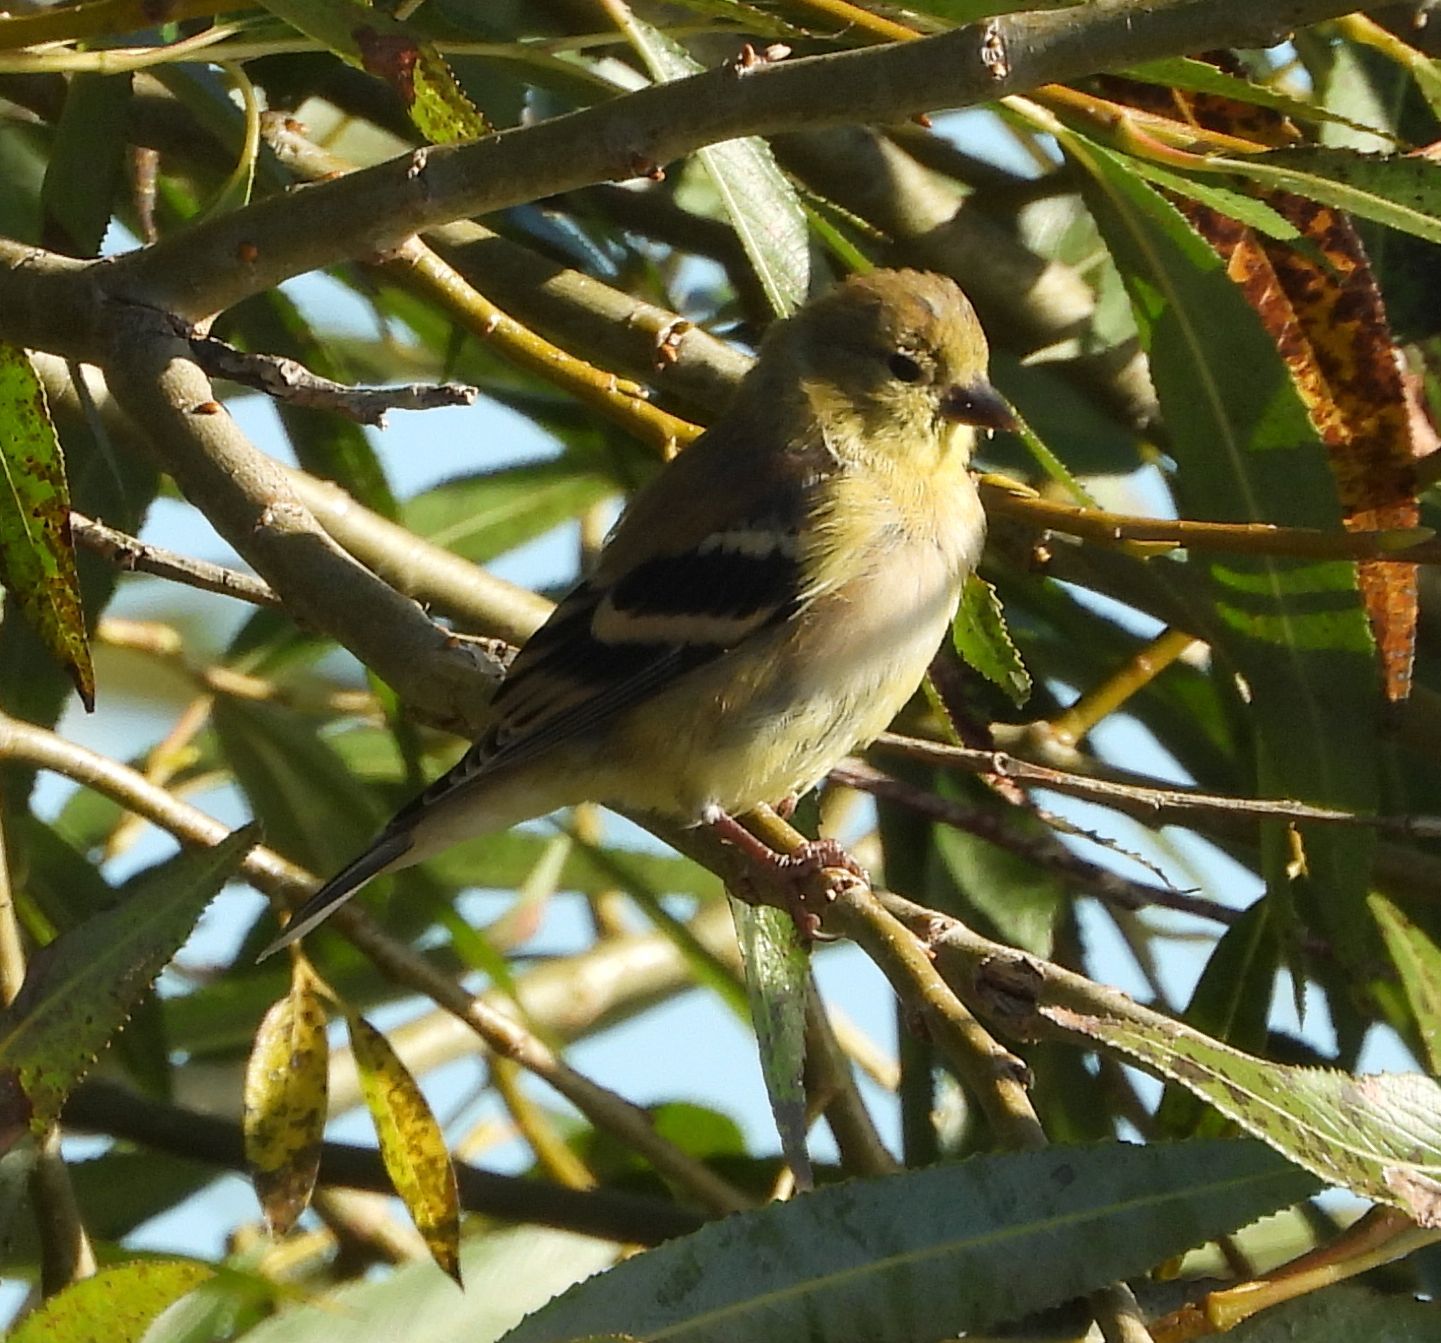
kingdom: Animalia
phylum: Chordata
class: Aves
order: Passeriformes
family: Fringillidae
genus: Spinus
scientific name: Spinus tristis
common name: American goldfinch
